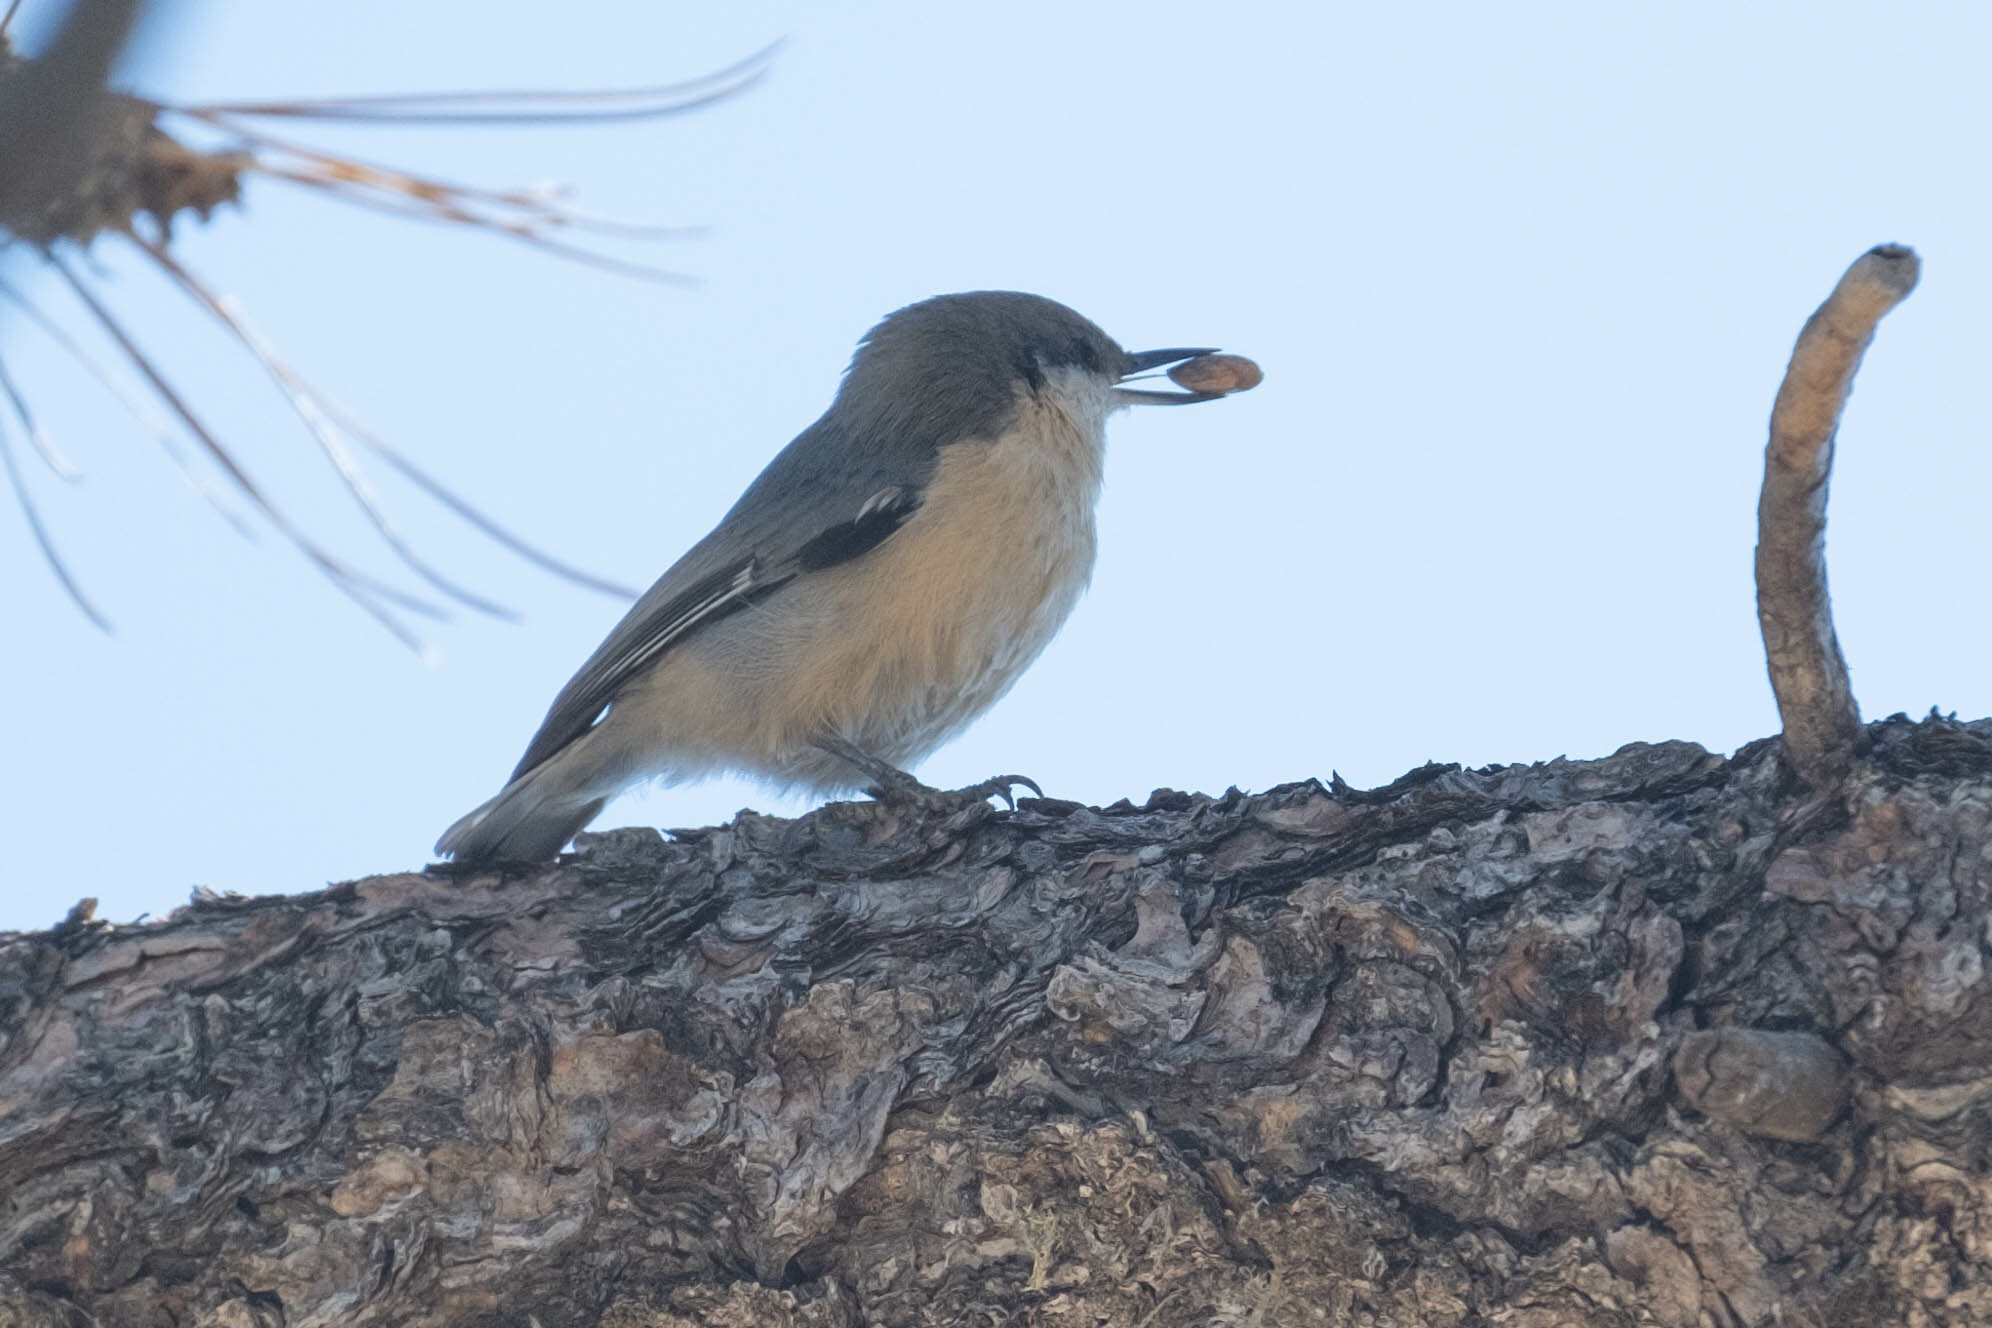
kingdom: Animalia
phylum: Chordata
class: Aves
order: Passeriformes
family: Sittidae
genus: Sitta
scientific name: Sitta pygmaea
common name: Pygmy nuthatch
